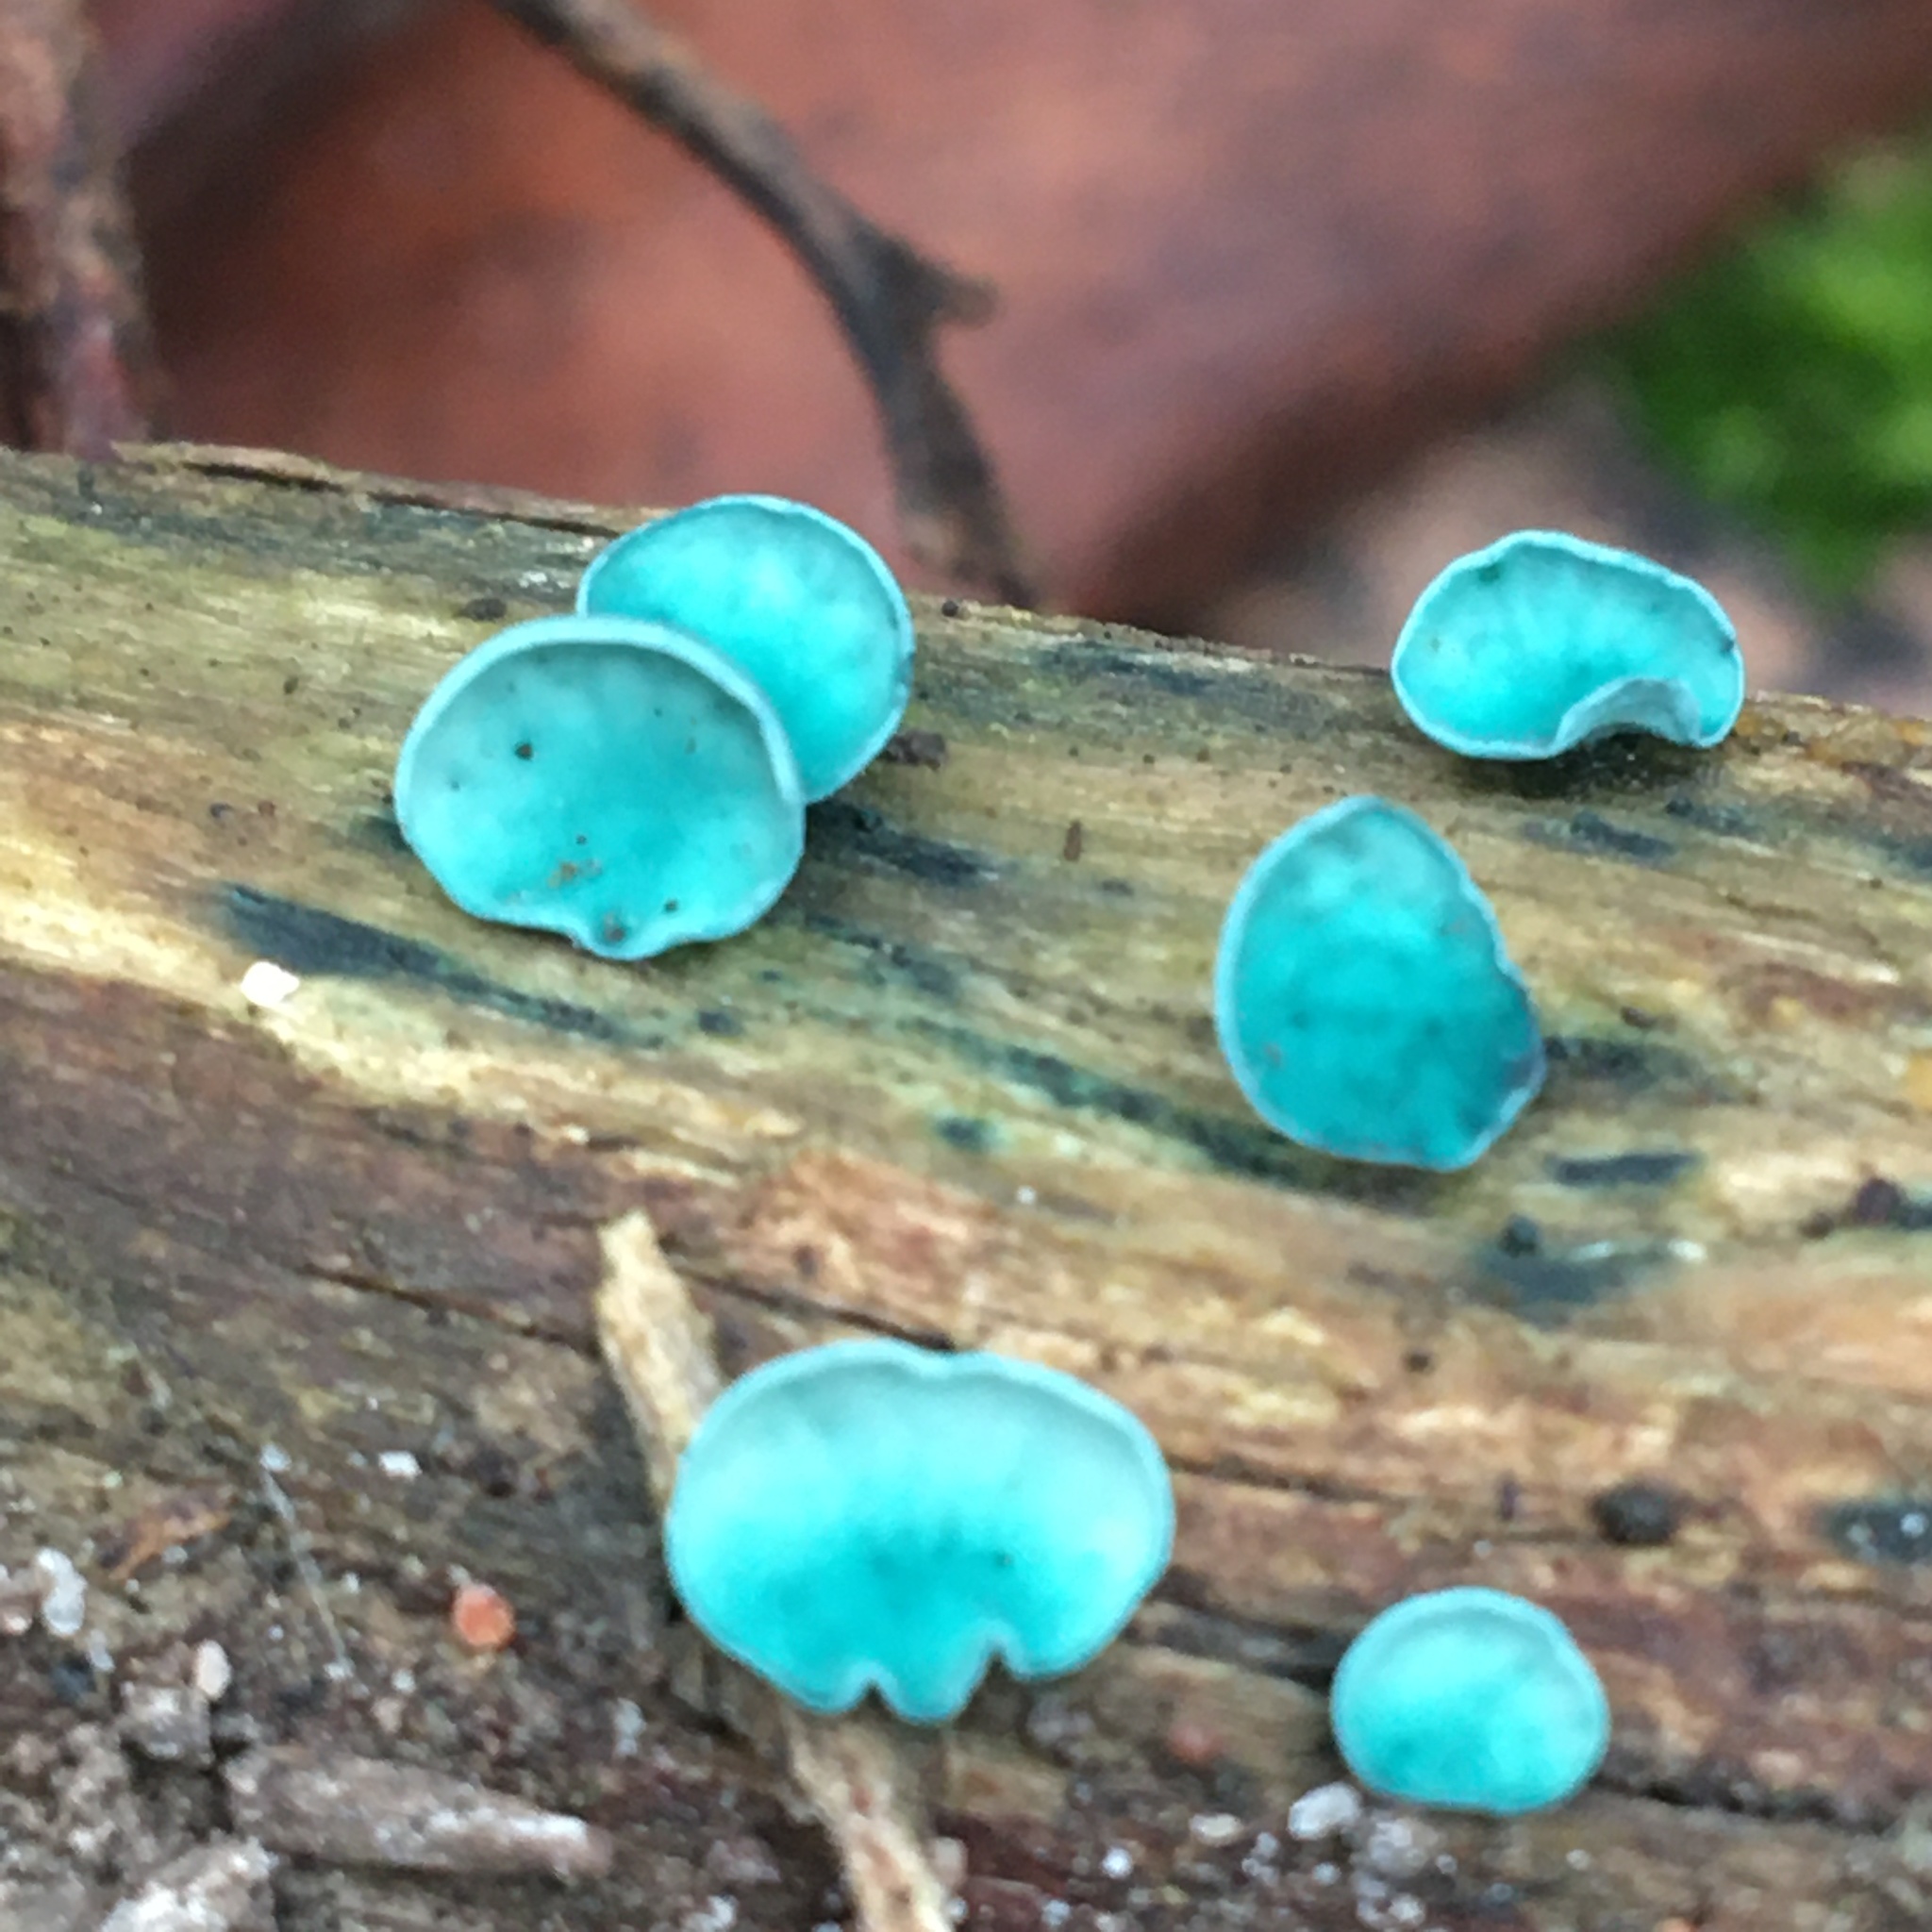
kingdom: Fungi
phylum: Ascomycota
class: Leotiomycetes
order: Helotiales
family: Chlorociboriaceae
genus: Chlorociboria
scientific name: Chlorociboria
